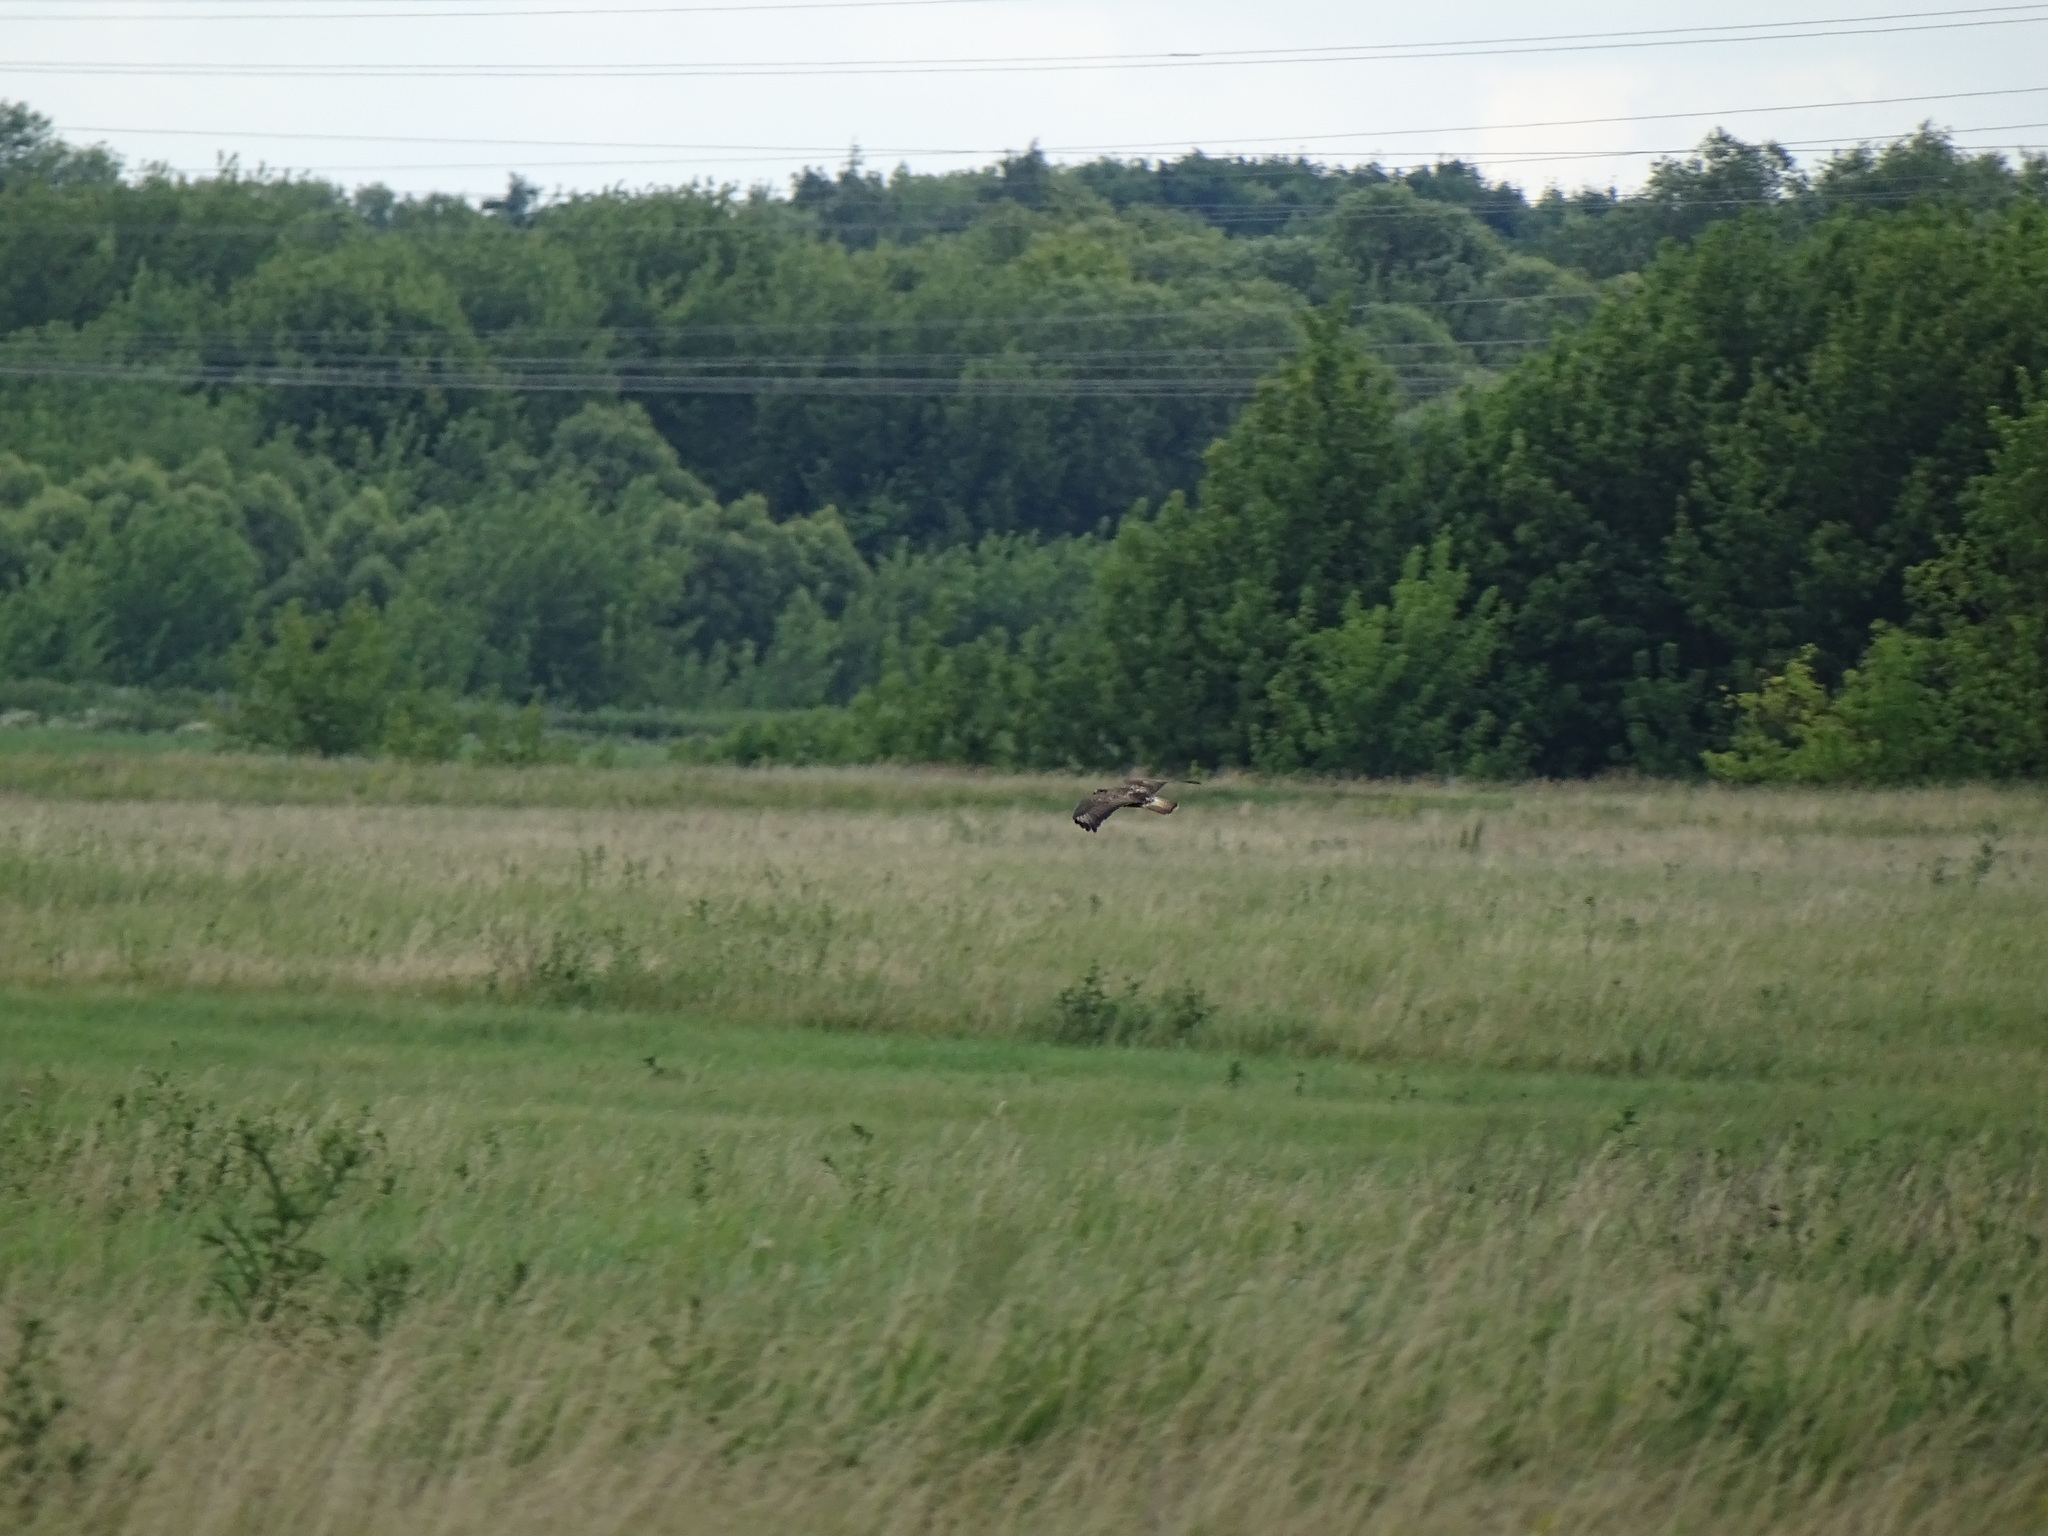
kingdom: Animalia
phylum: Chordata
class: Aves
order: Accipitriformes
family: Accipitridae
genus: Buteo
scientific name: Buteo buteo
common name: Common buzzard
